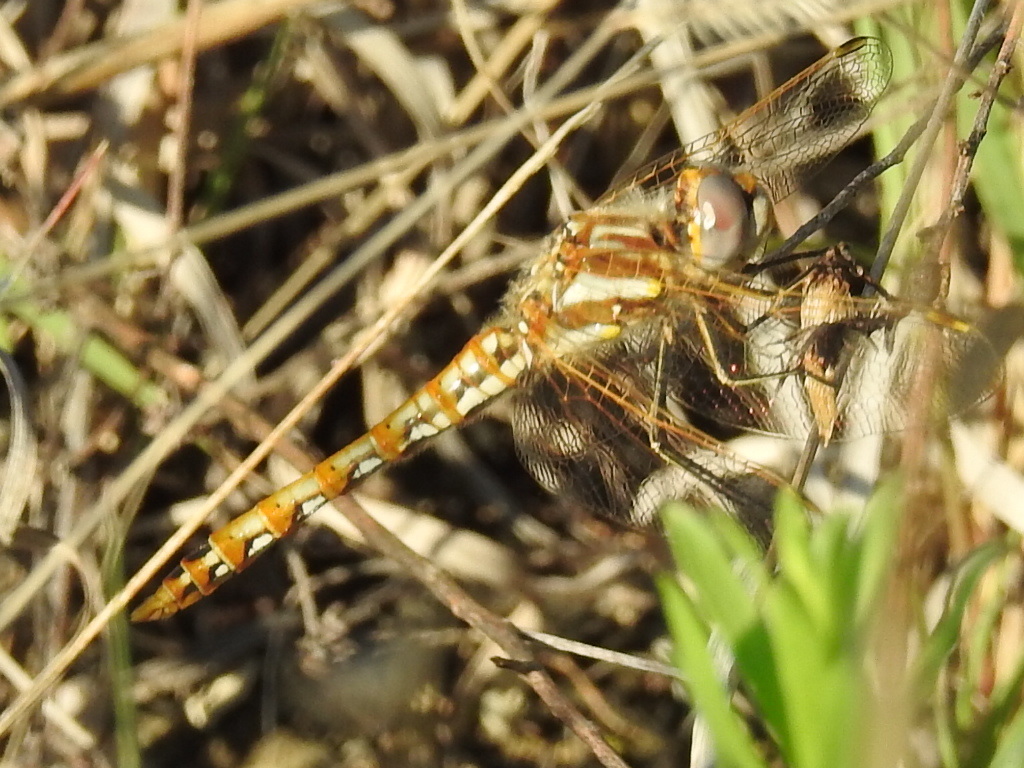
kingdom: Animalia
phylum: Arthropoda
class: Insecta
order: Odonata
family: Libellulidae
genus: Sympetrum
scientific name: Sympetrum corruptum
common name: Variegated meadowhawk
